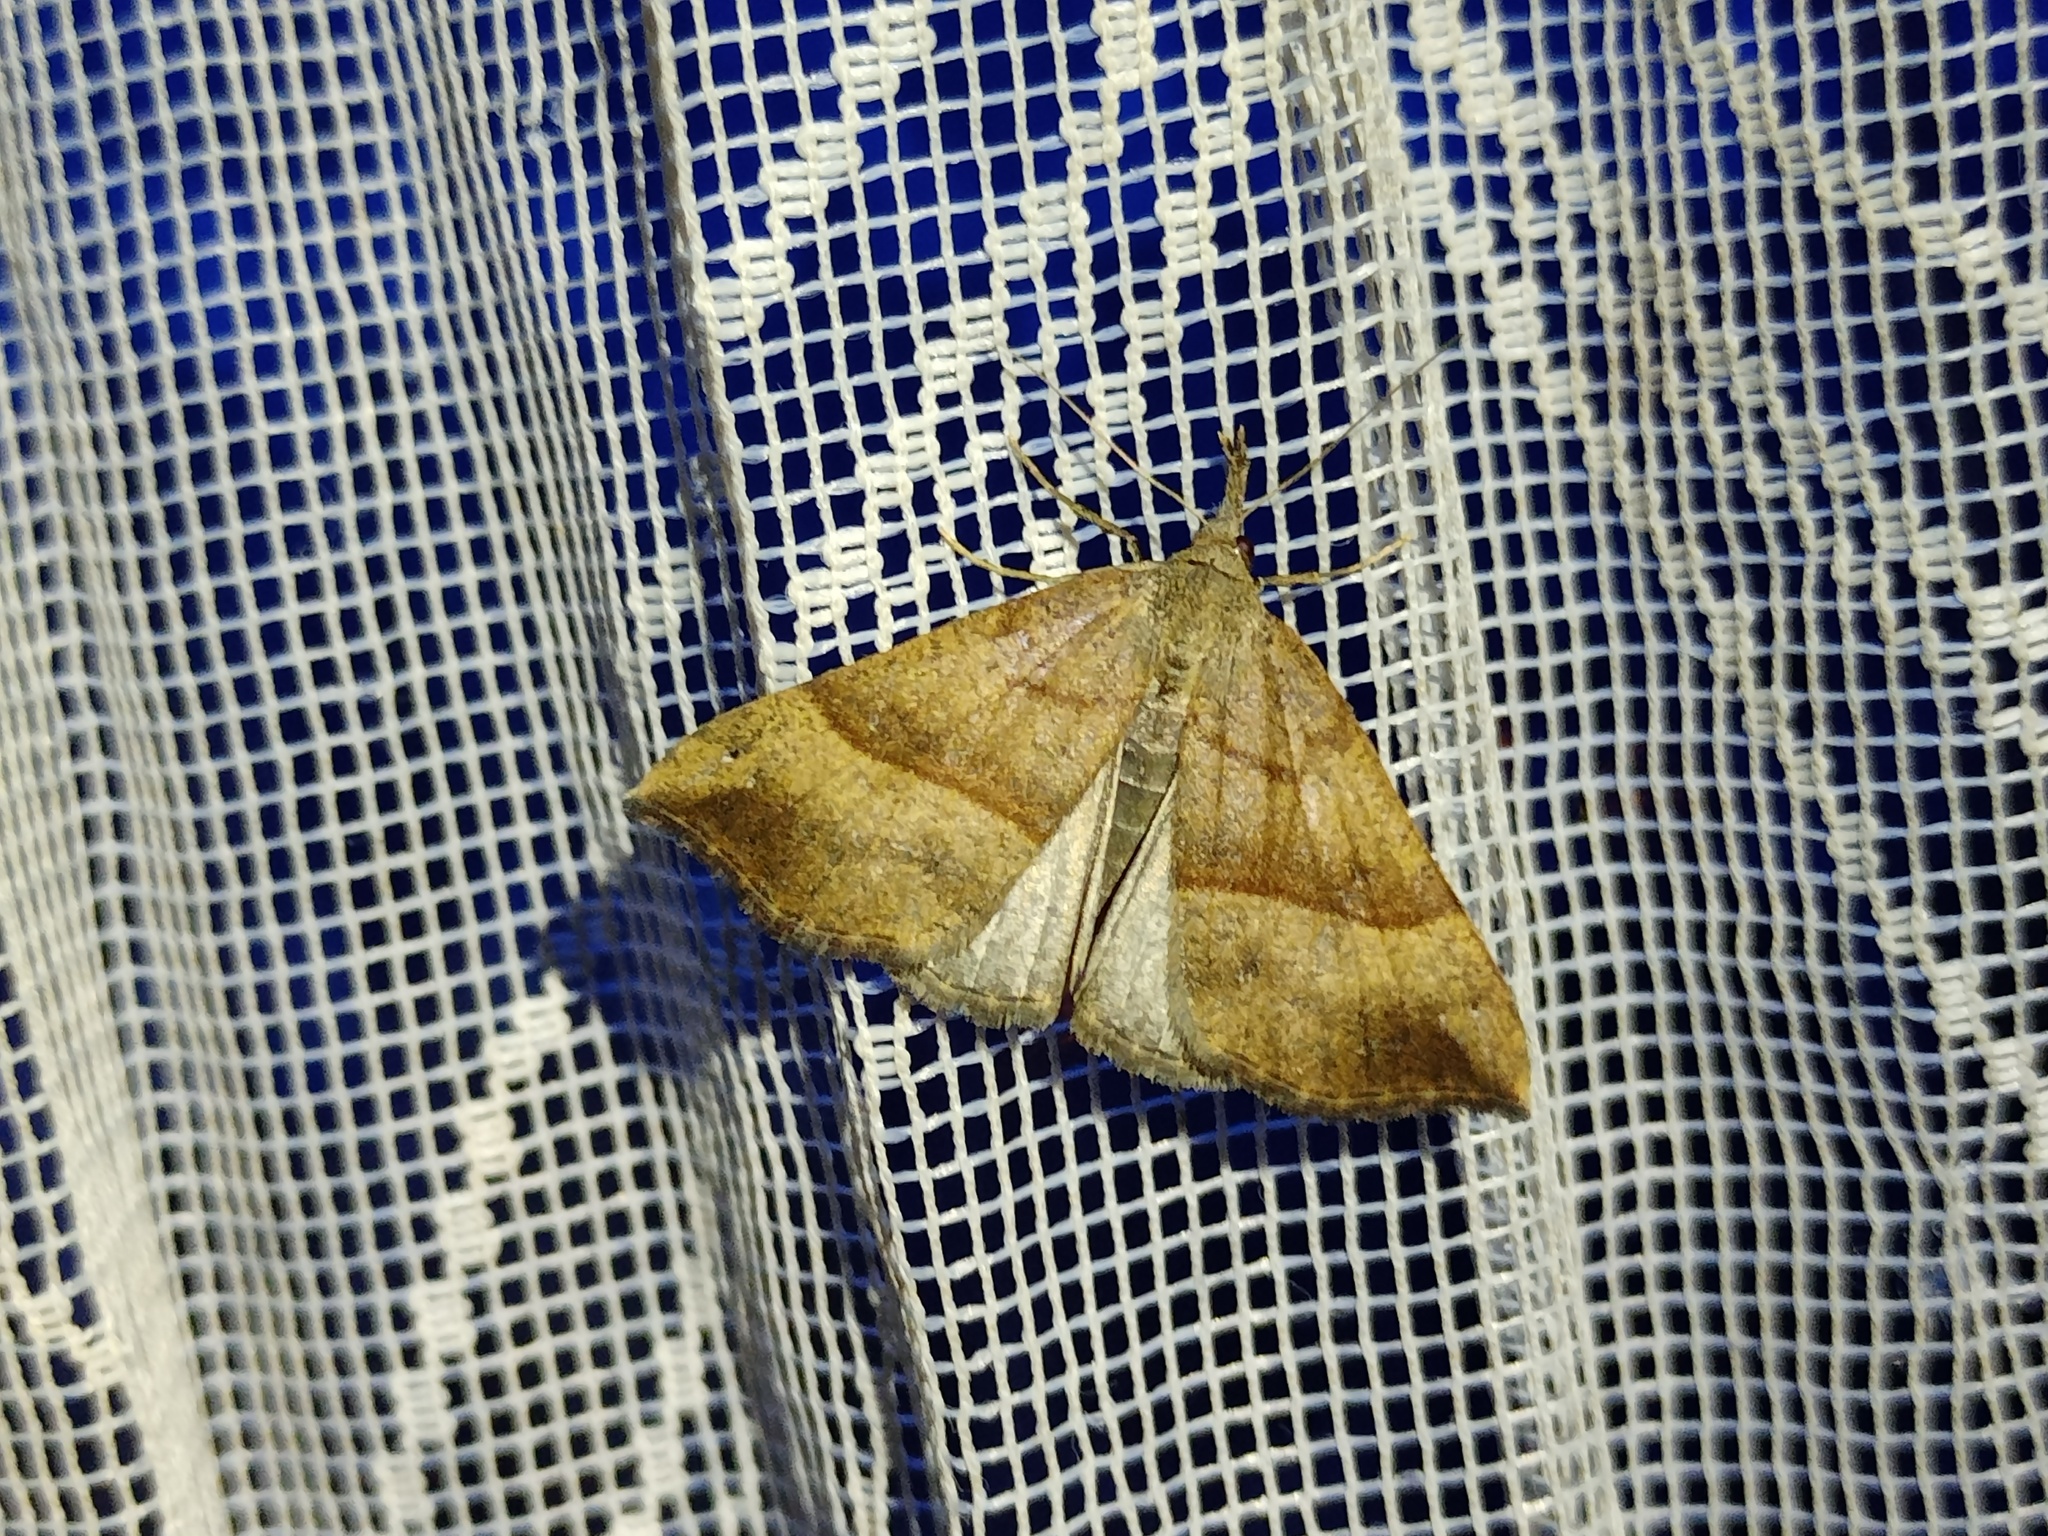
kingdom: Animalia
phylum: Arthropoda
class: Insecta
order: Lepidoptera
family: Erebidae
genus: Hypena
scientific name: Hypena proboscidalis
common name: Snout
